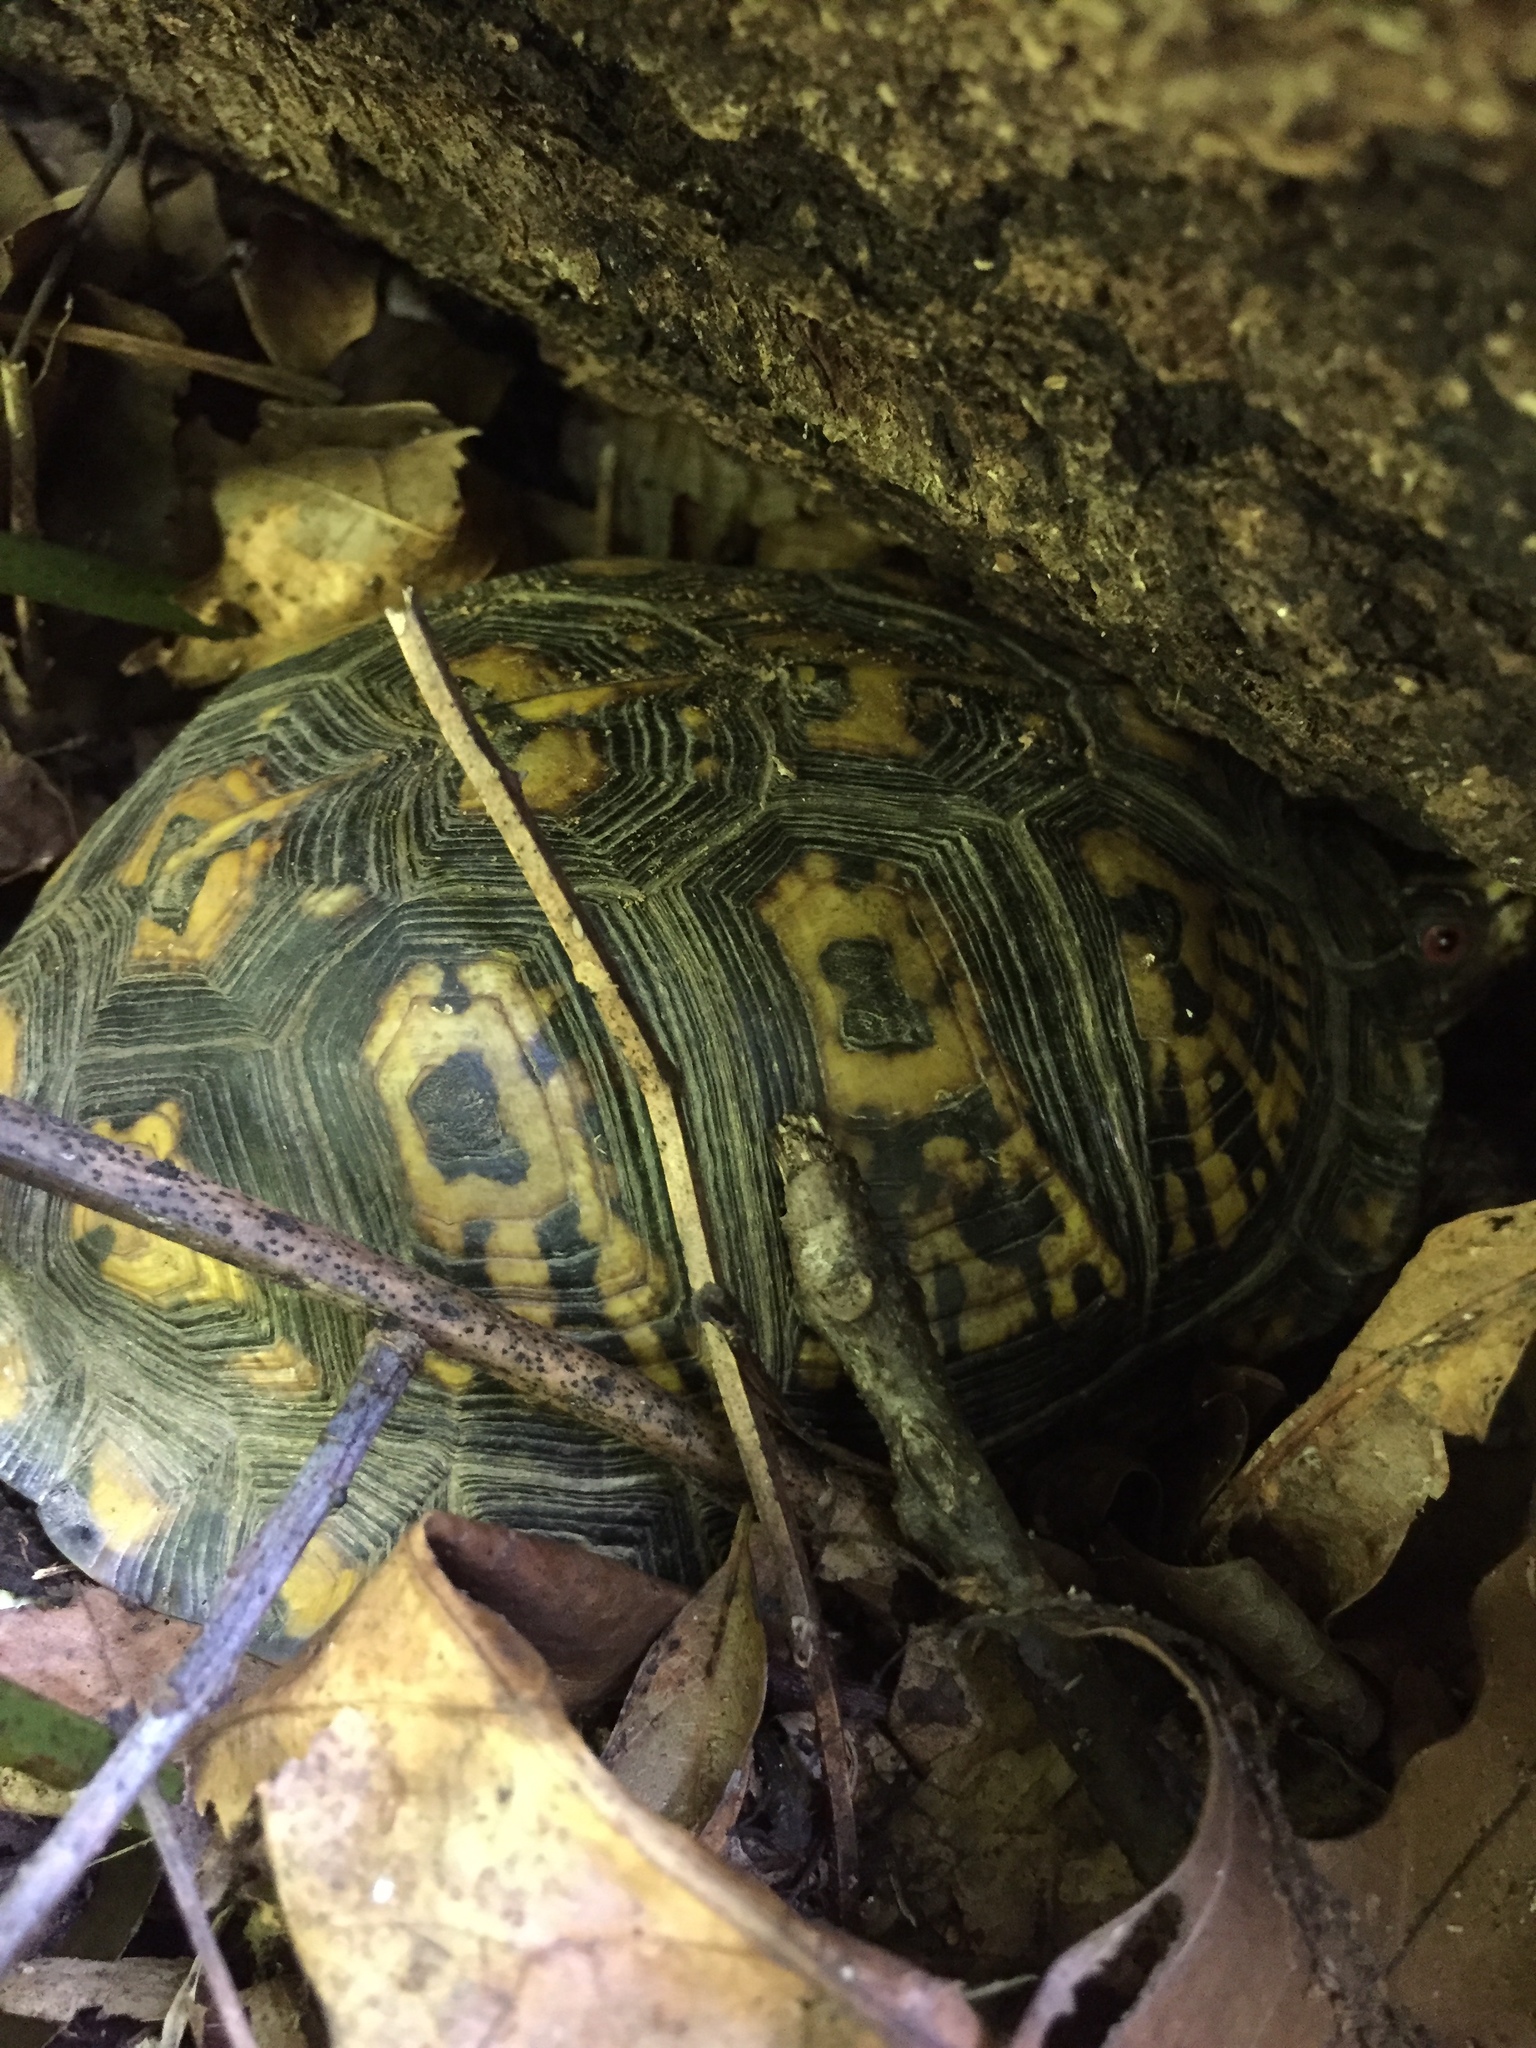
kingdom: Animalia
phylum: Chordata
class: Testudines
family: Emydidae
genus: Terrapene
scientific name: Terrapene carolina
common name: Common box turtle
